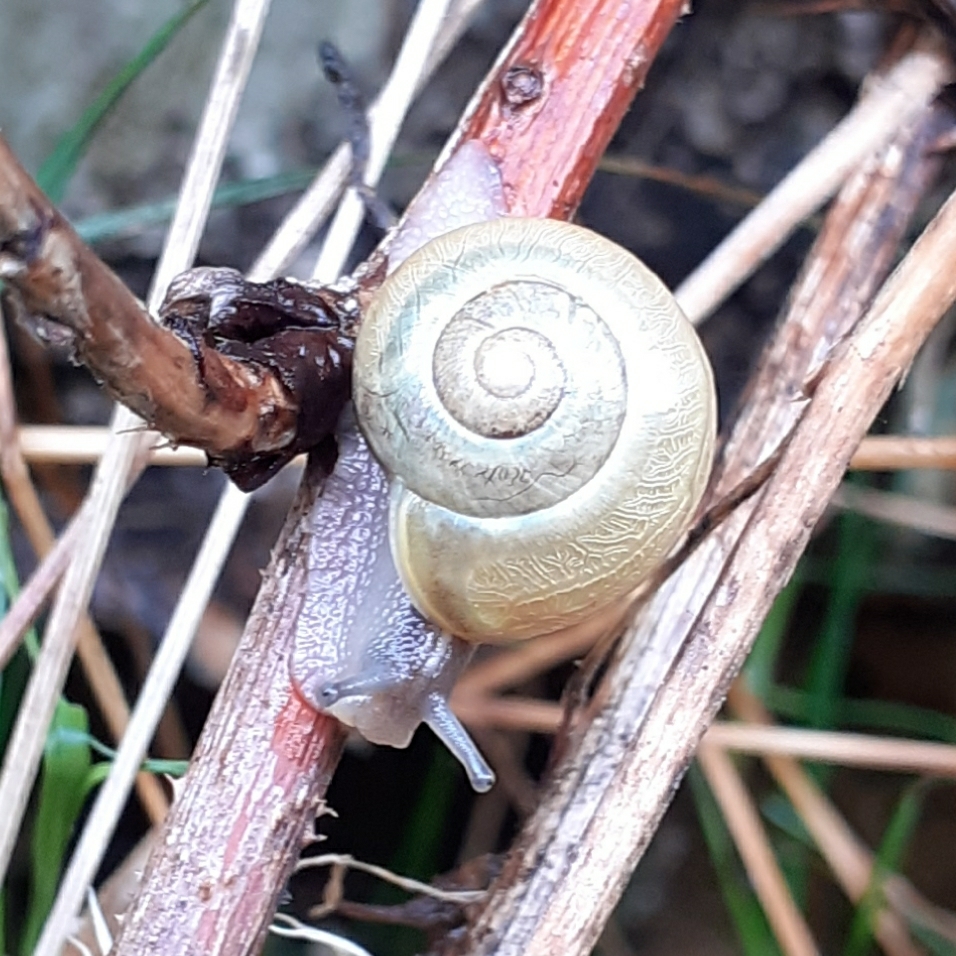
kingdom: Animalia
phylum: Mollusca
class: Gastropoda
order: Stylommatophora
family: Helicidae
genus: Cepaea
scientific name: Cepaea
